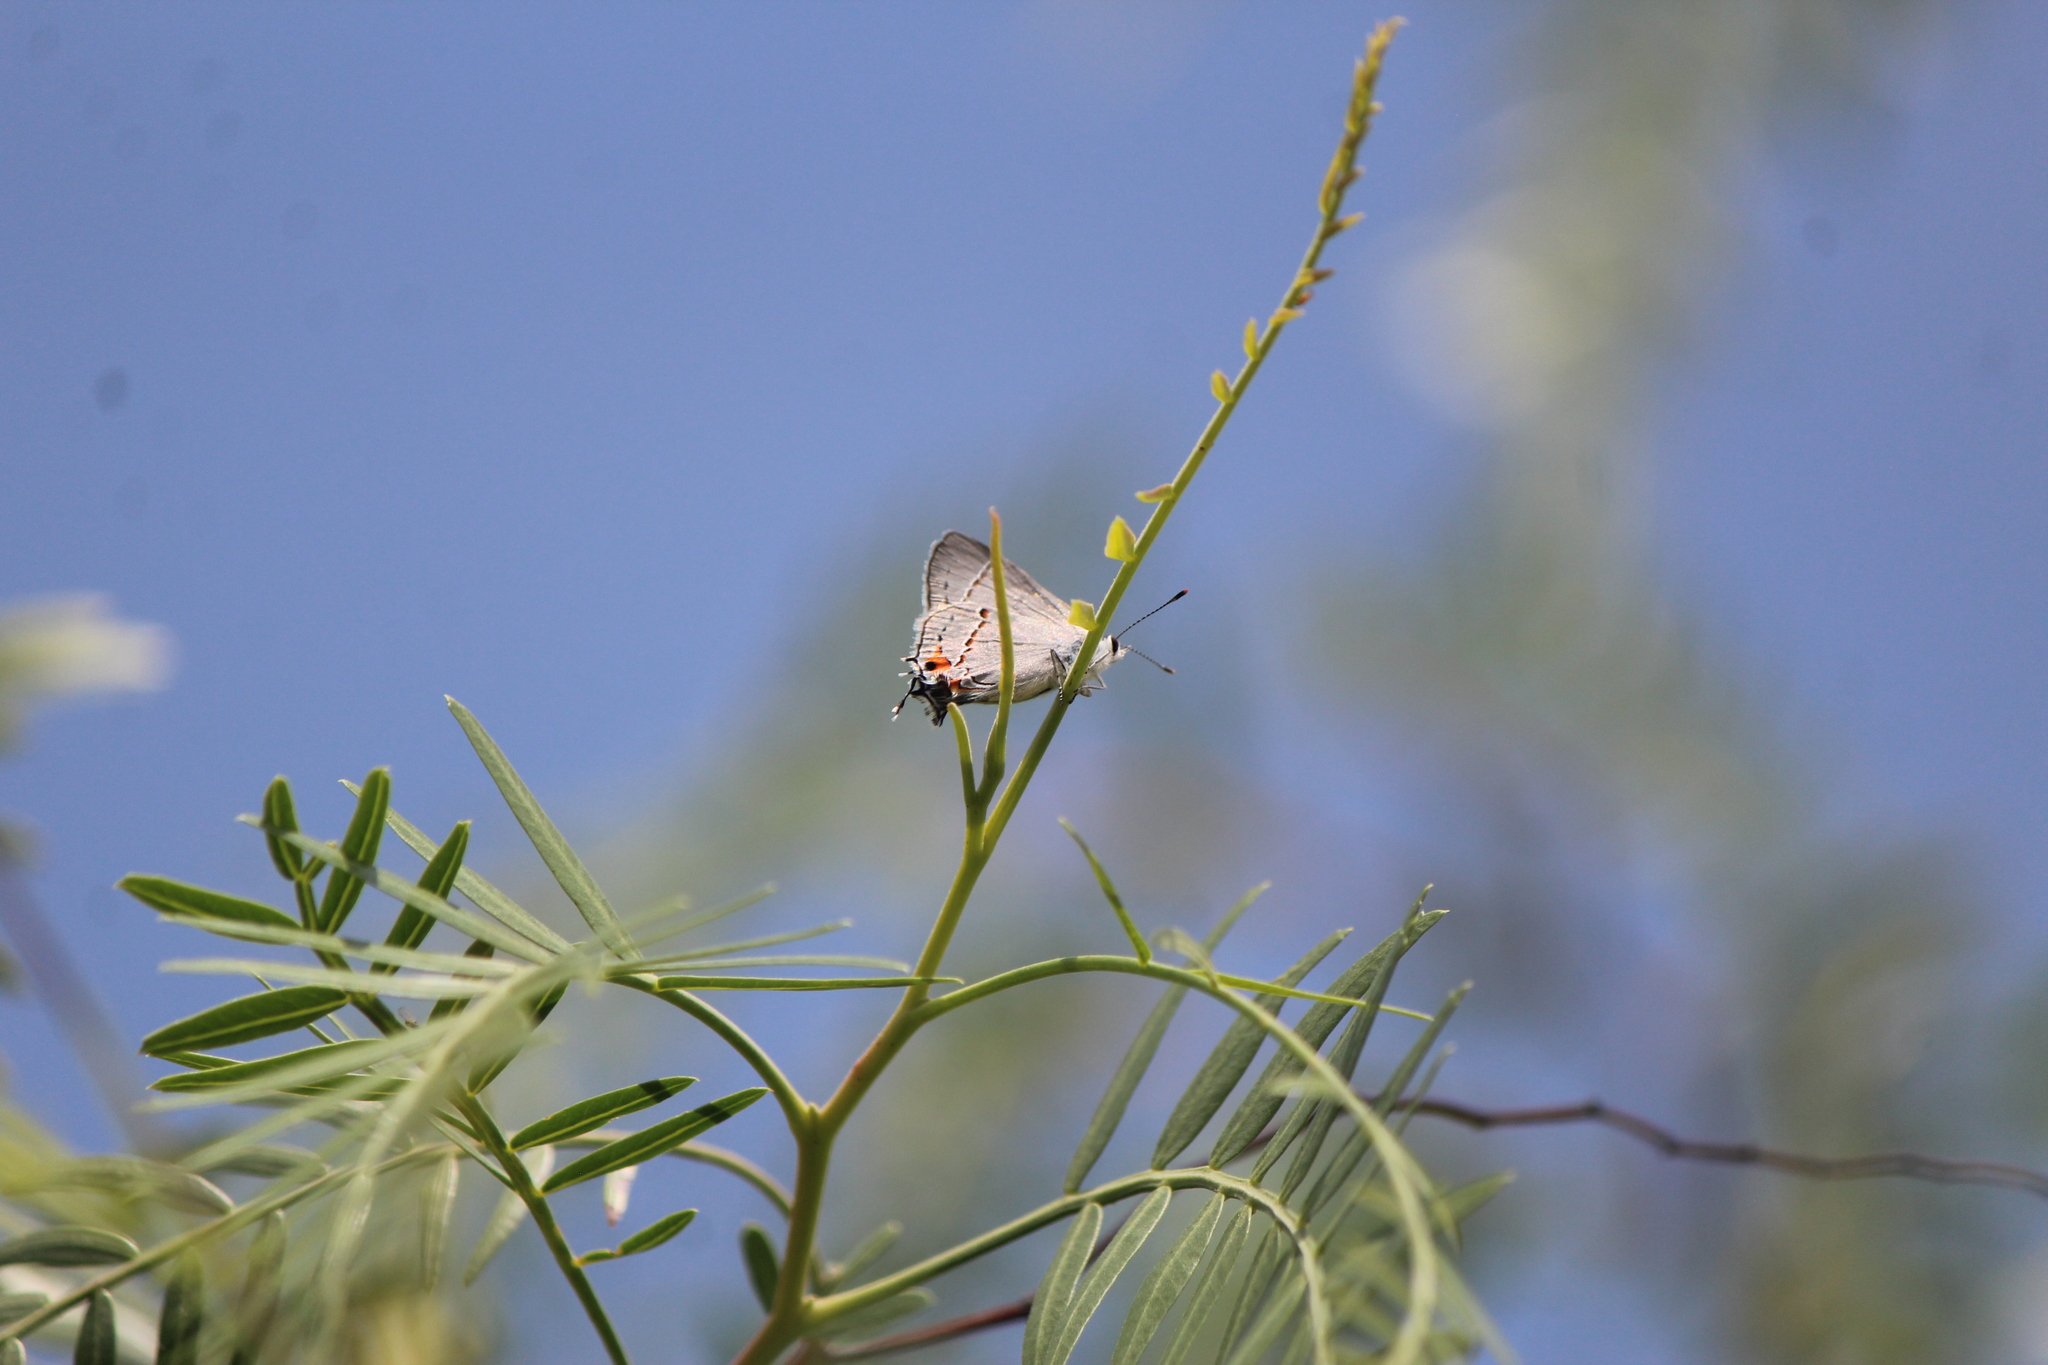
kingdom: Animalia
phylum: Arthropoda
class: Insecta
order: Lepidoptera
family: Lycaenidae
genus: Strymon
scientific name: Strymon melinus
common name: Gray hairstreak
